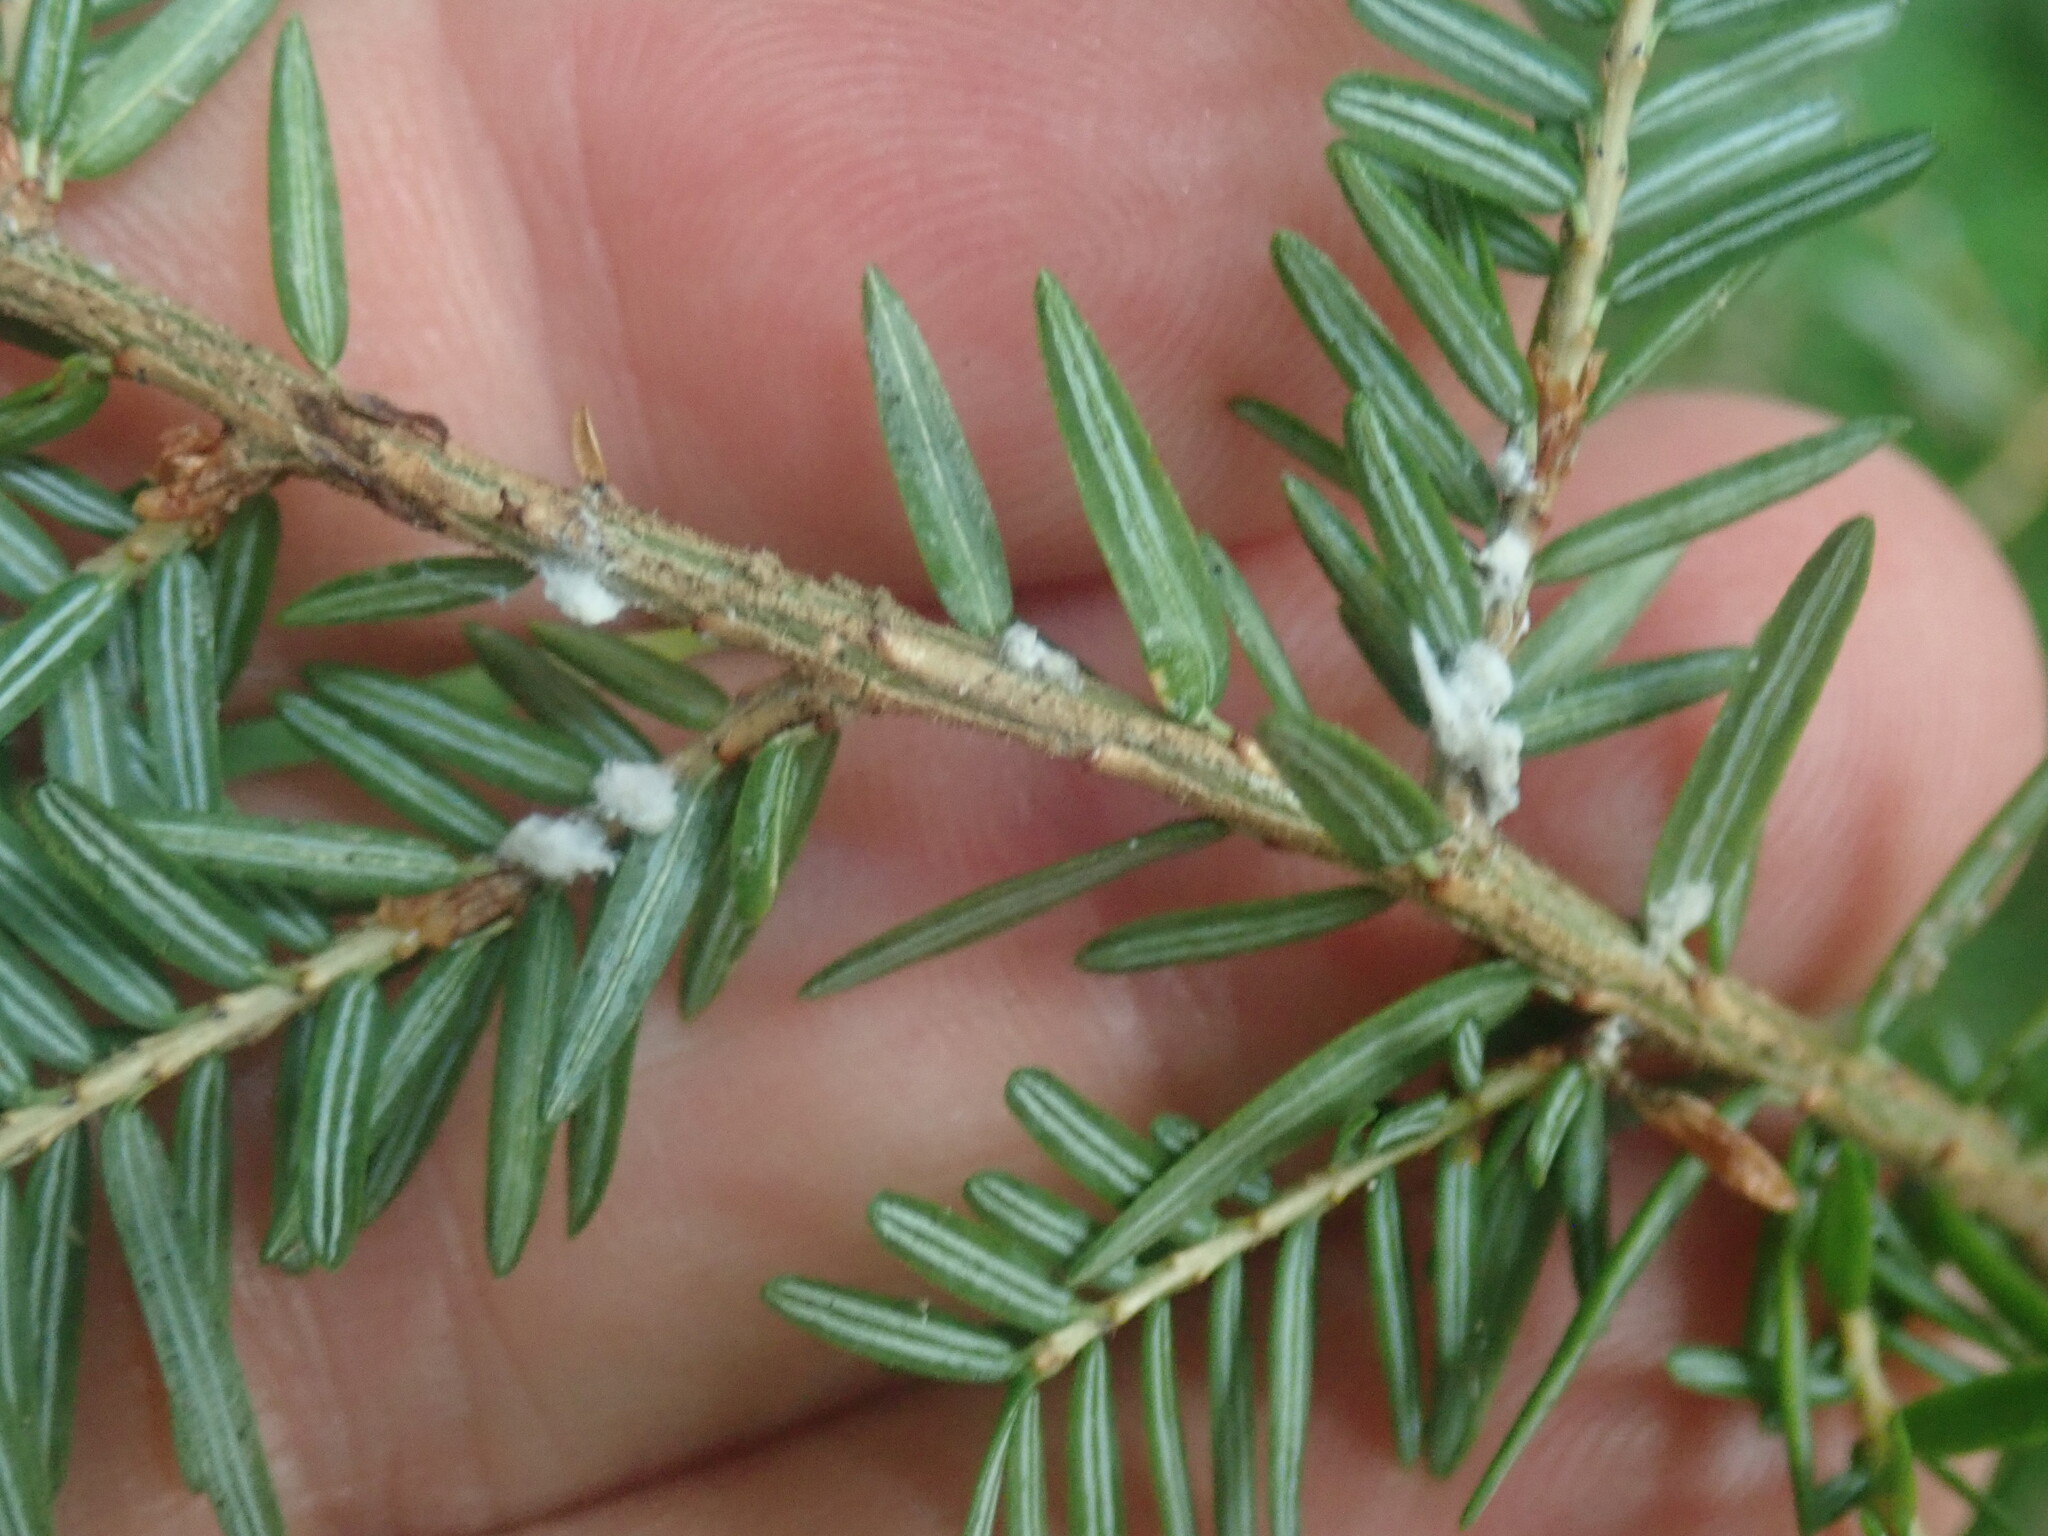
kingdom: Animalia
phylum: Arthropoda
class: Insecta
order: Hemiptera
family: Adelgidae
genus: Adelges
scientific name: Adelges tsugae
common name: Hemlock woolly adelgid
